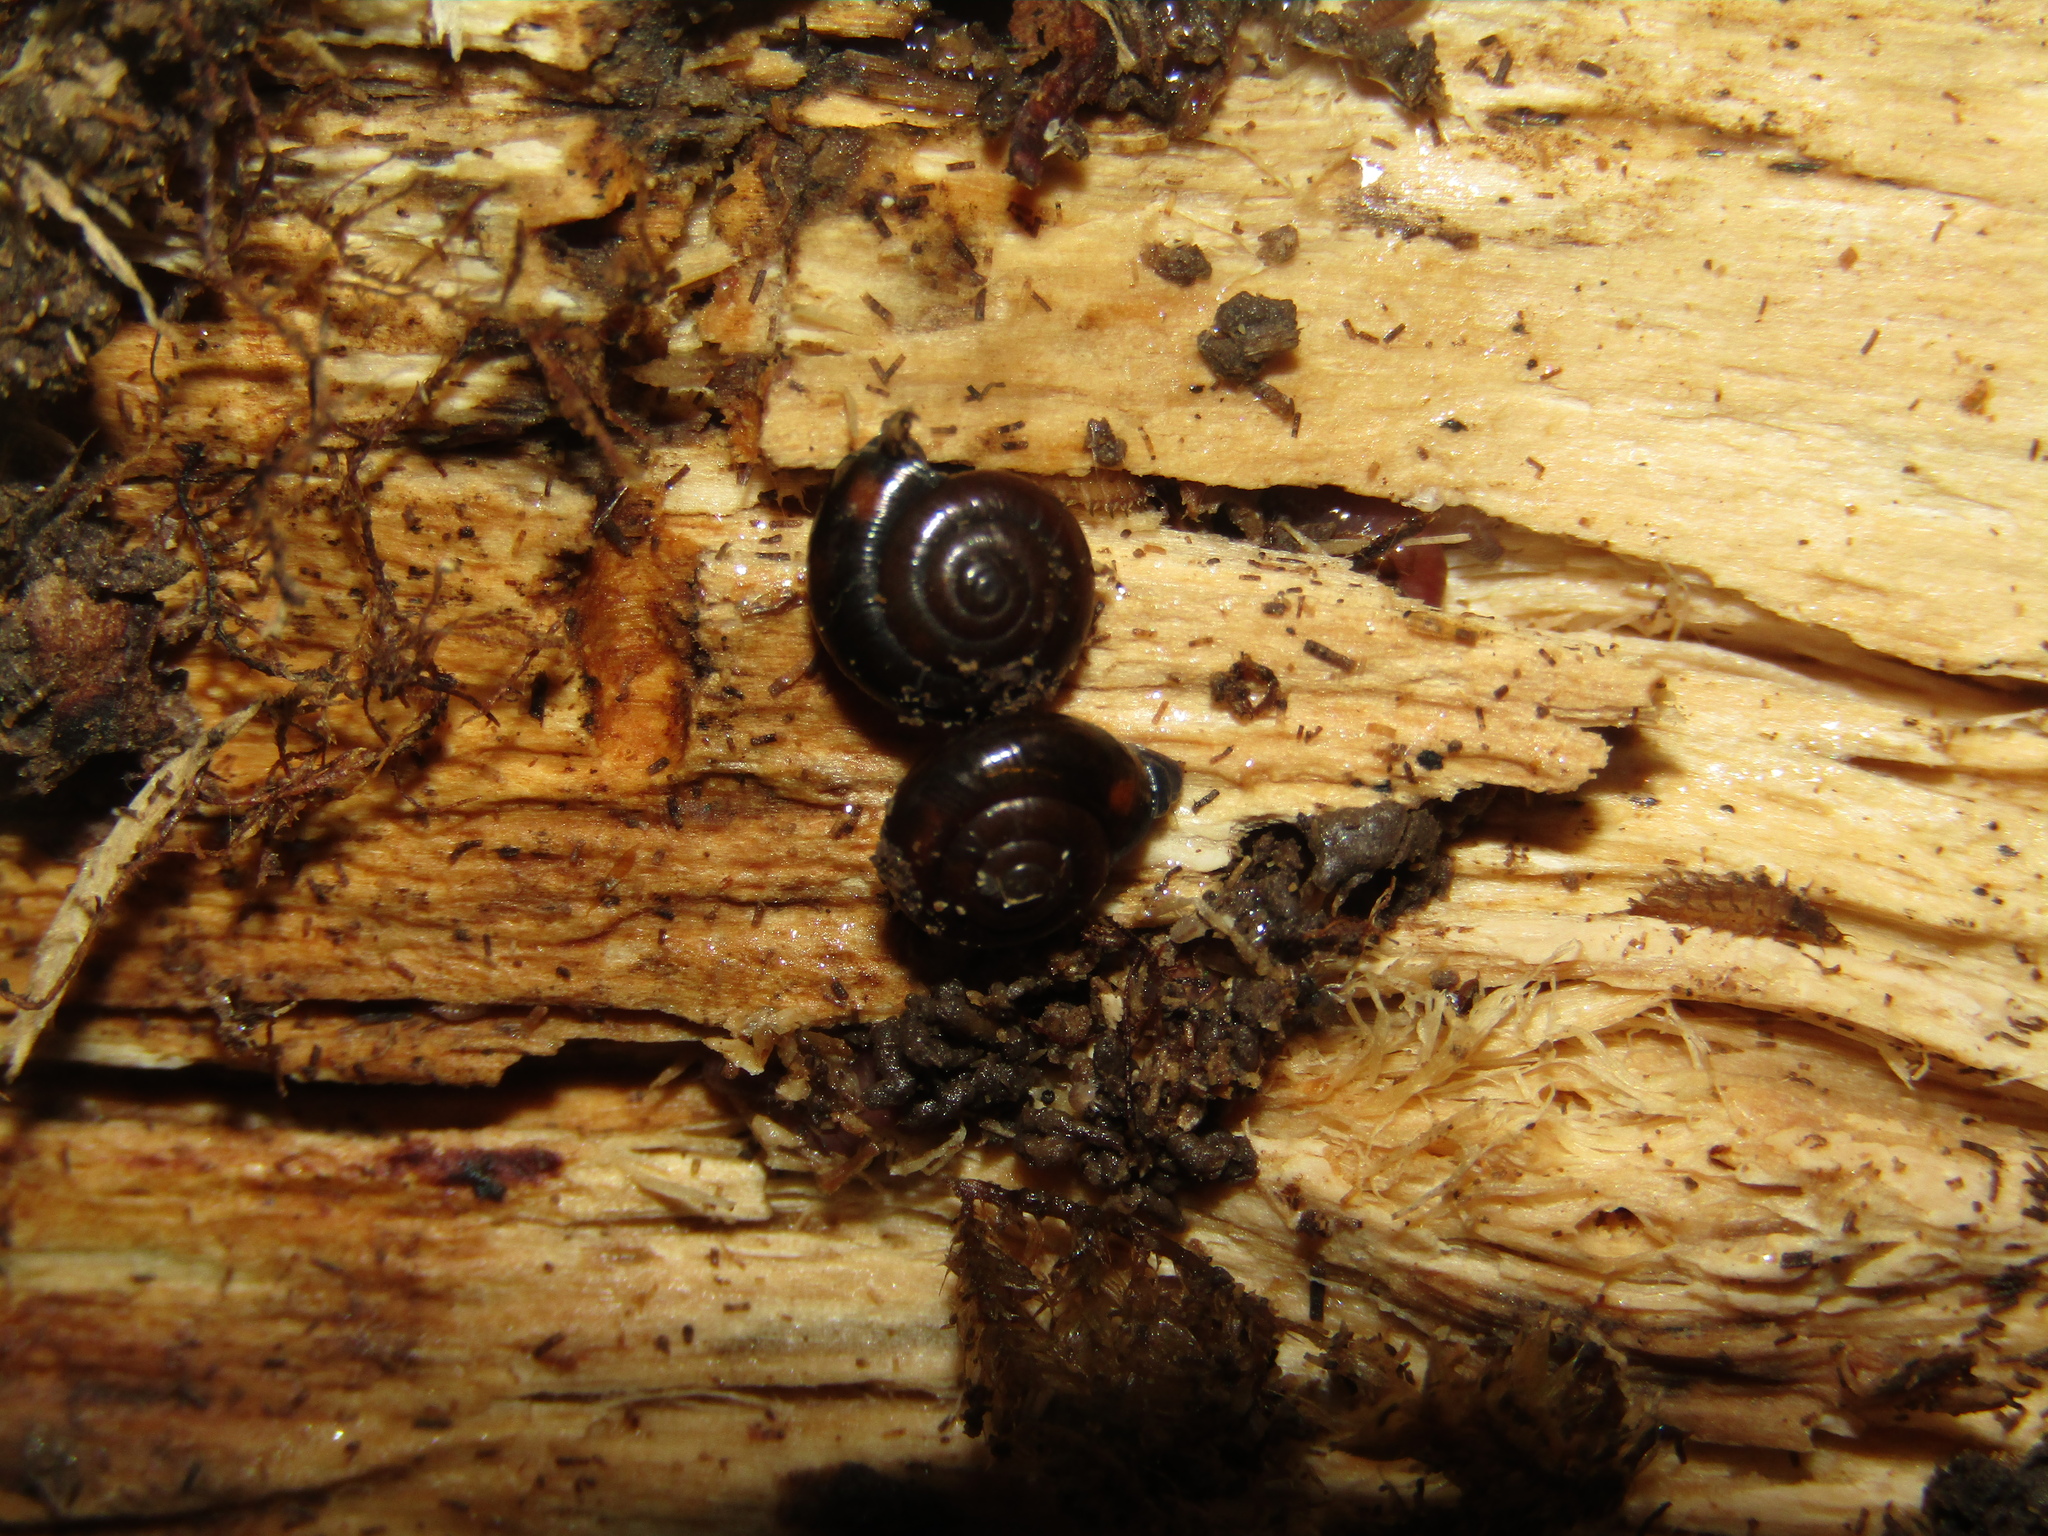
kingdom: Animalia
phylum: Mollusca
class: Gastropoda
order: Stylommatophora
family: Gastrodontidae
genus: Zonitoides
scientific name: Zonitoides nitidus
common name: Shiny glass snail
